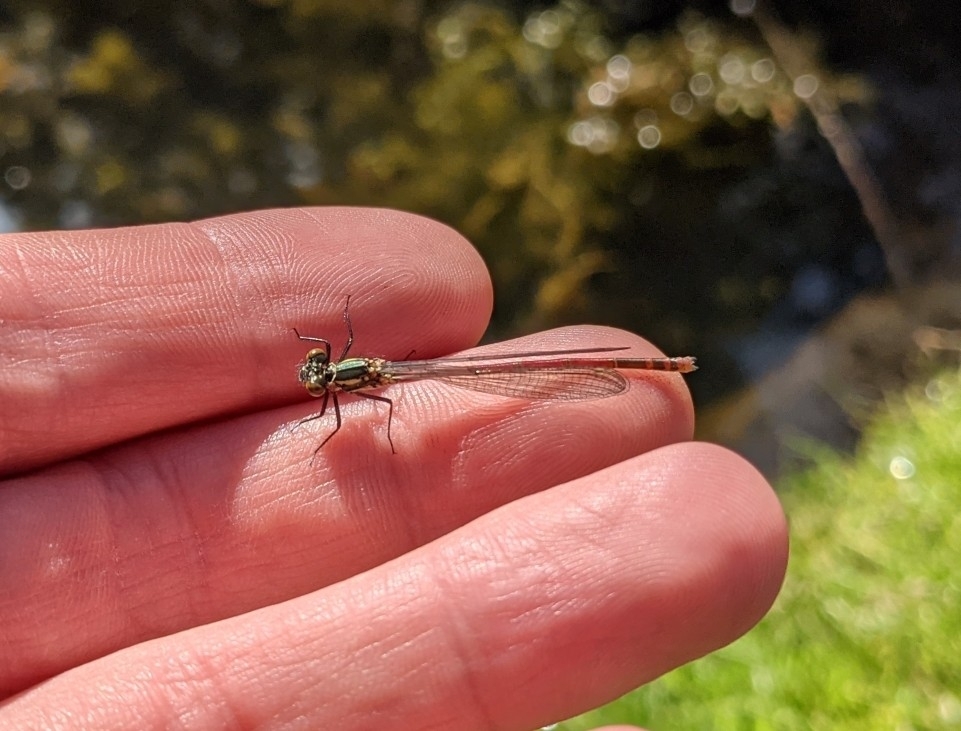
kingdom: Animalia
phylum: Arthropoda
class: Insecta
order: Odonata
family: Coenagrionidae
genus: Pyrrhosoma
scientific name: Pyrrhosoma nymphula
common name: Large red damsel
